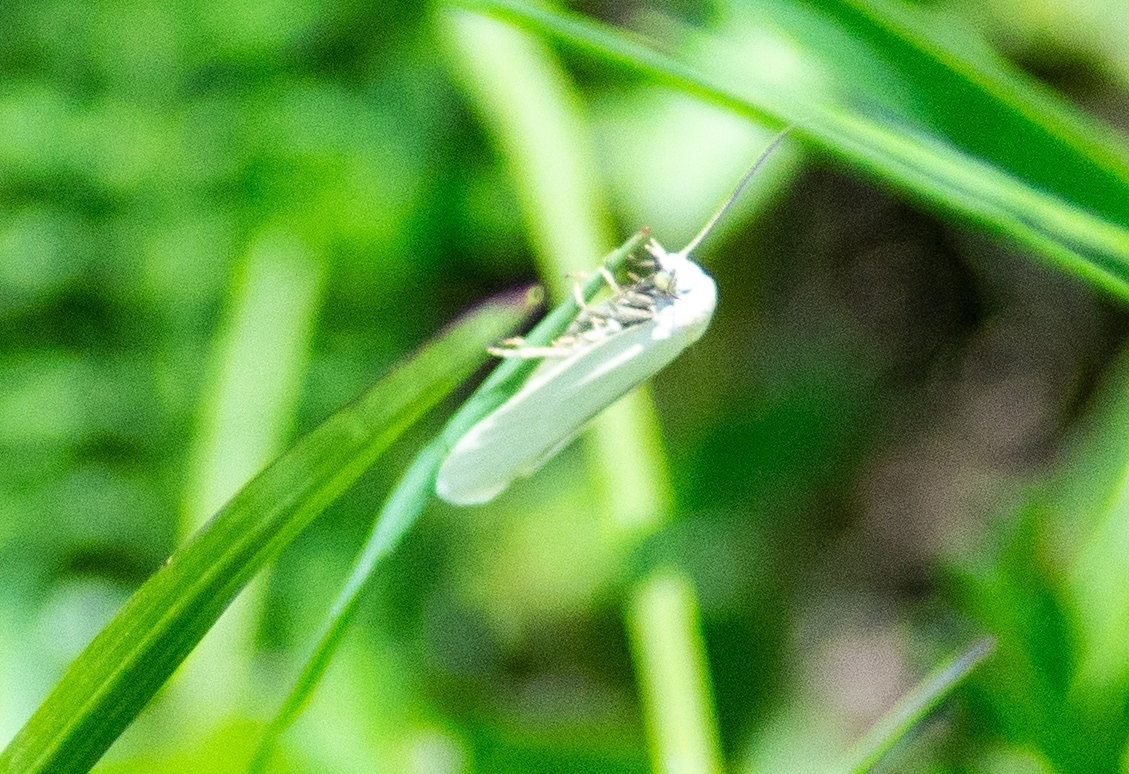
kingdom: Animalia
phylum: Arthropoda
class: Insecta
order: Lepidoptera
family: Tortricidae
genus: Eana
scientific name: Eana argentana
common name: Silver shade
